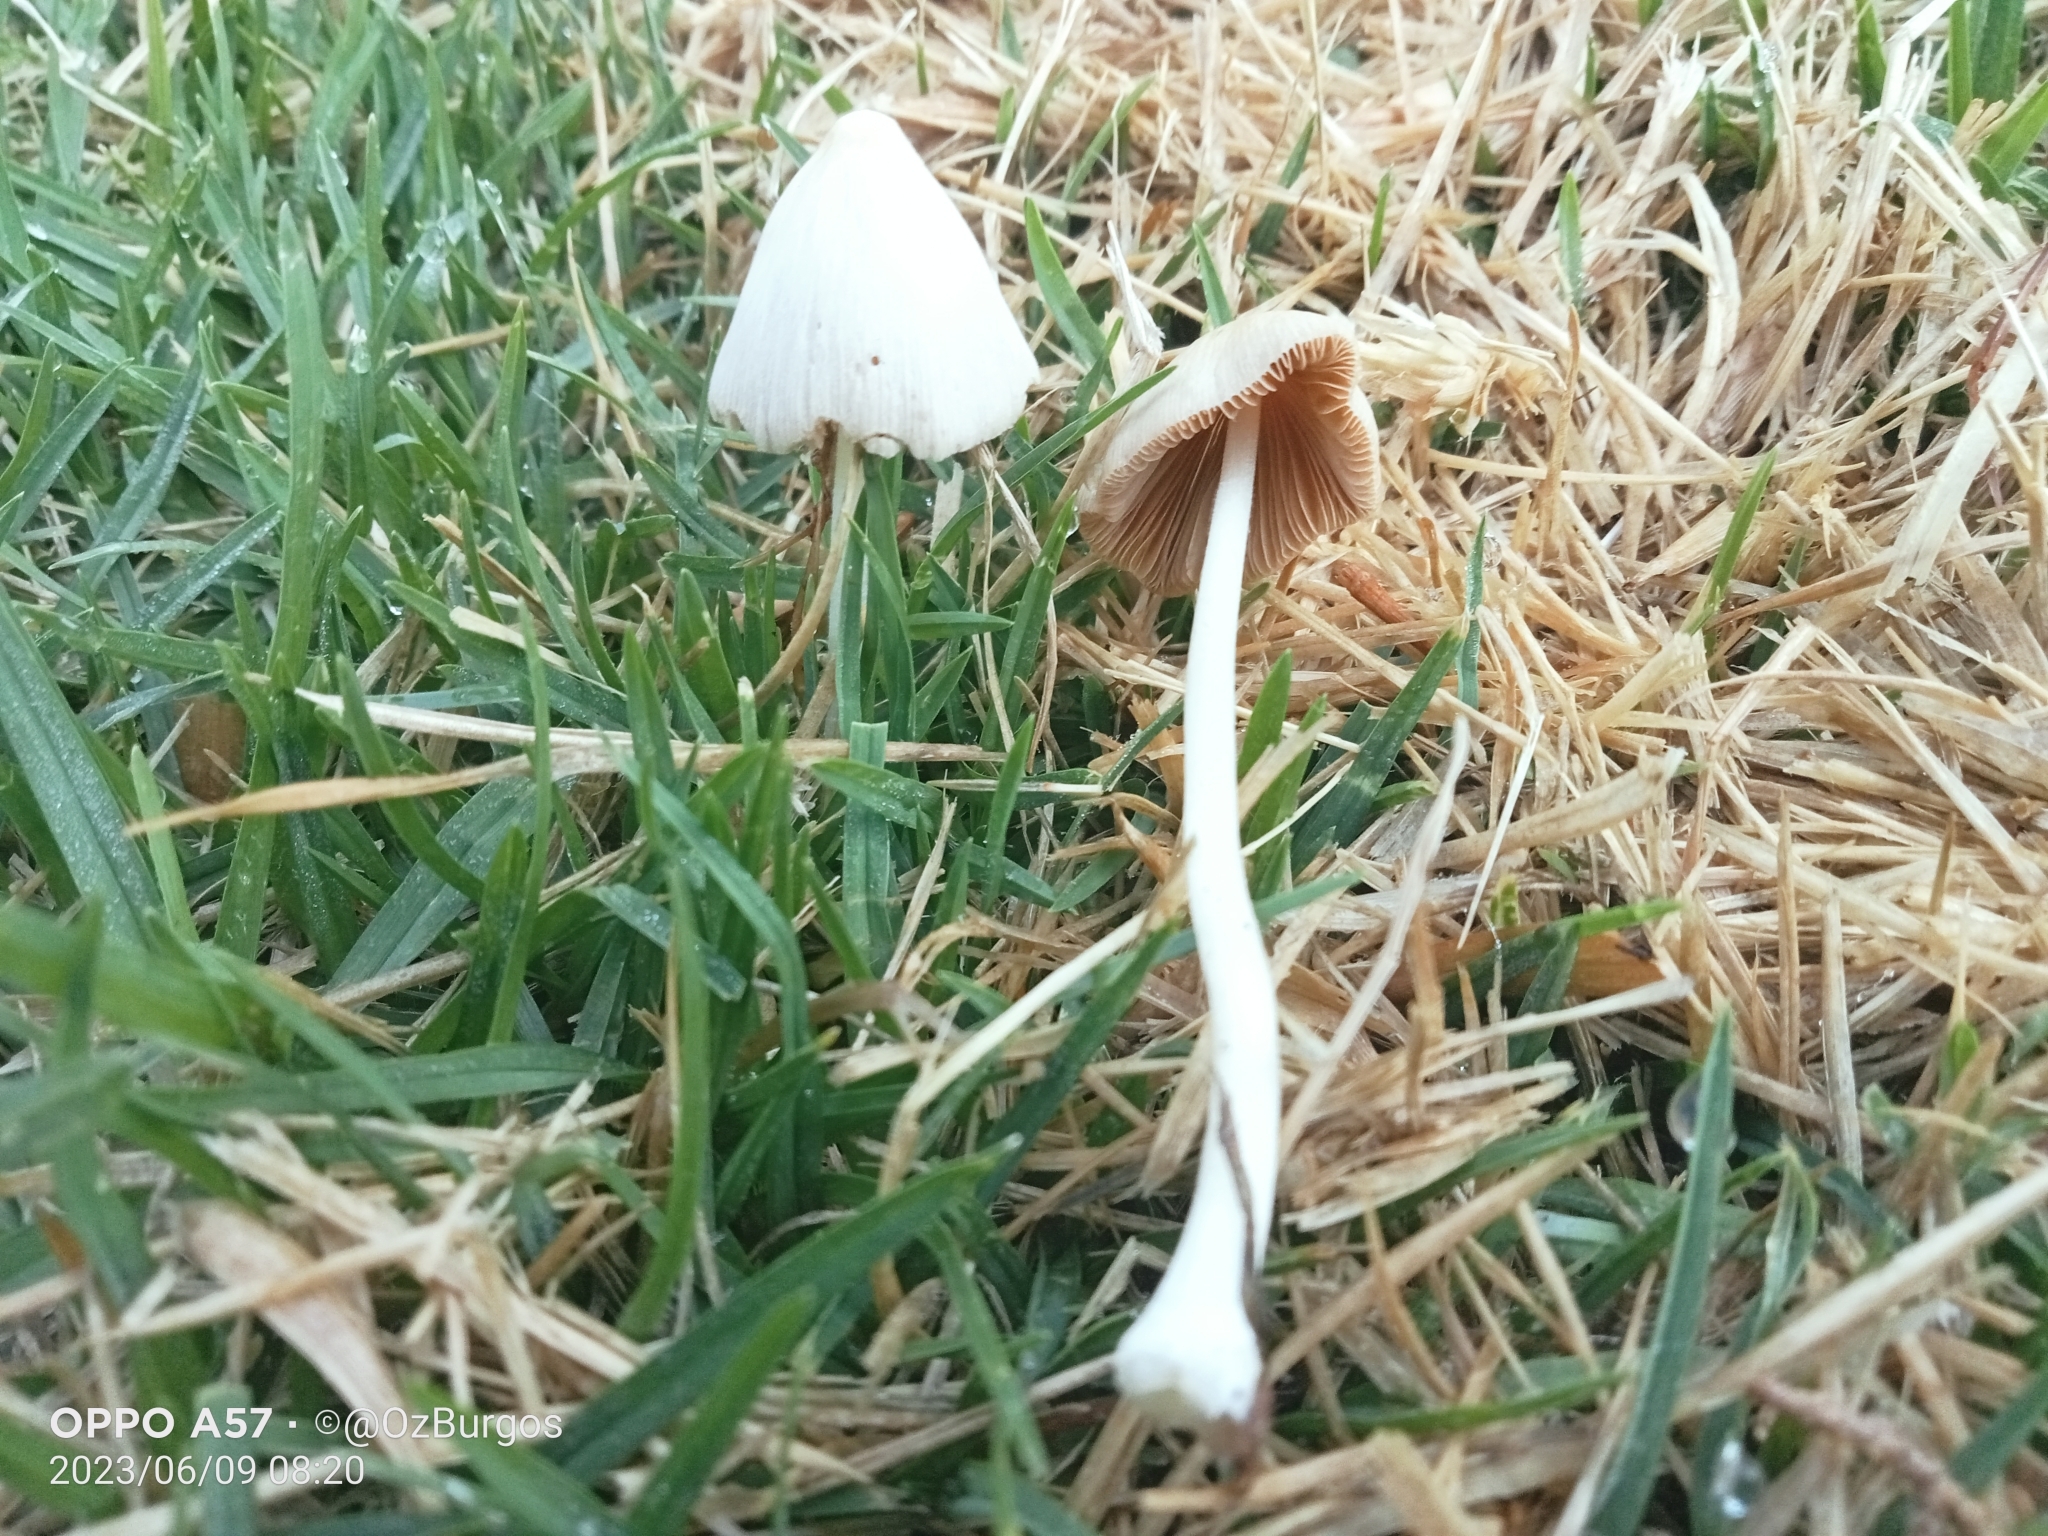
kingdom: Fungi
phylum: Basidiomycota
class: Agaricomycetes
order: Agaricales
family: Bolbitiaceae
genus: Conocybe
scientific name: Conocybe apala
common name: Milky conecap
